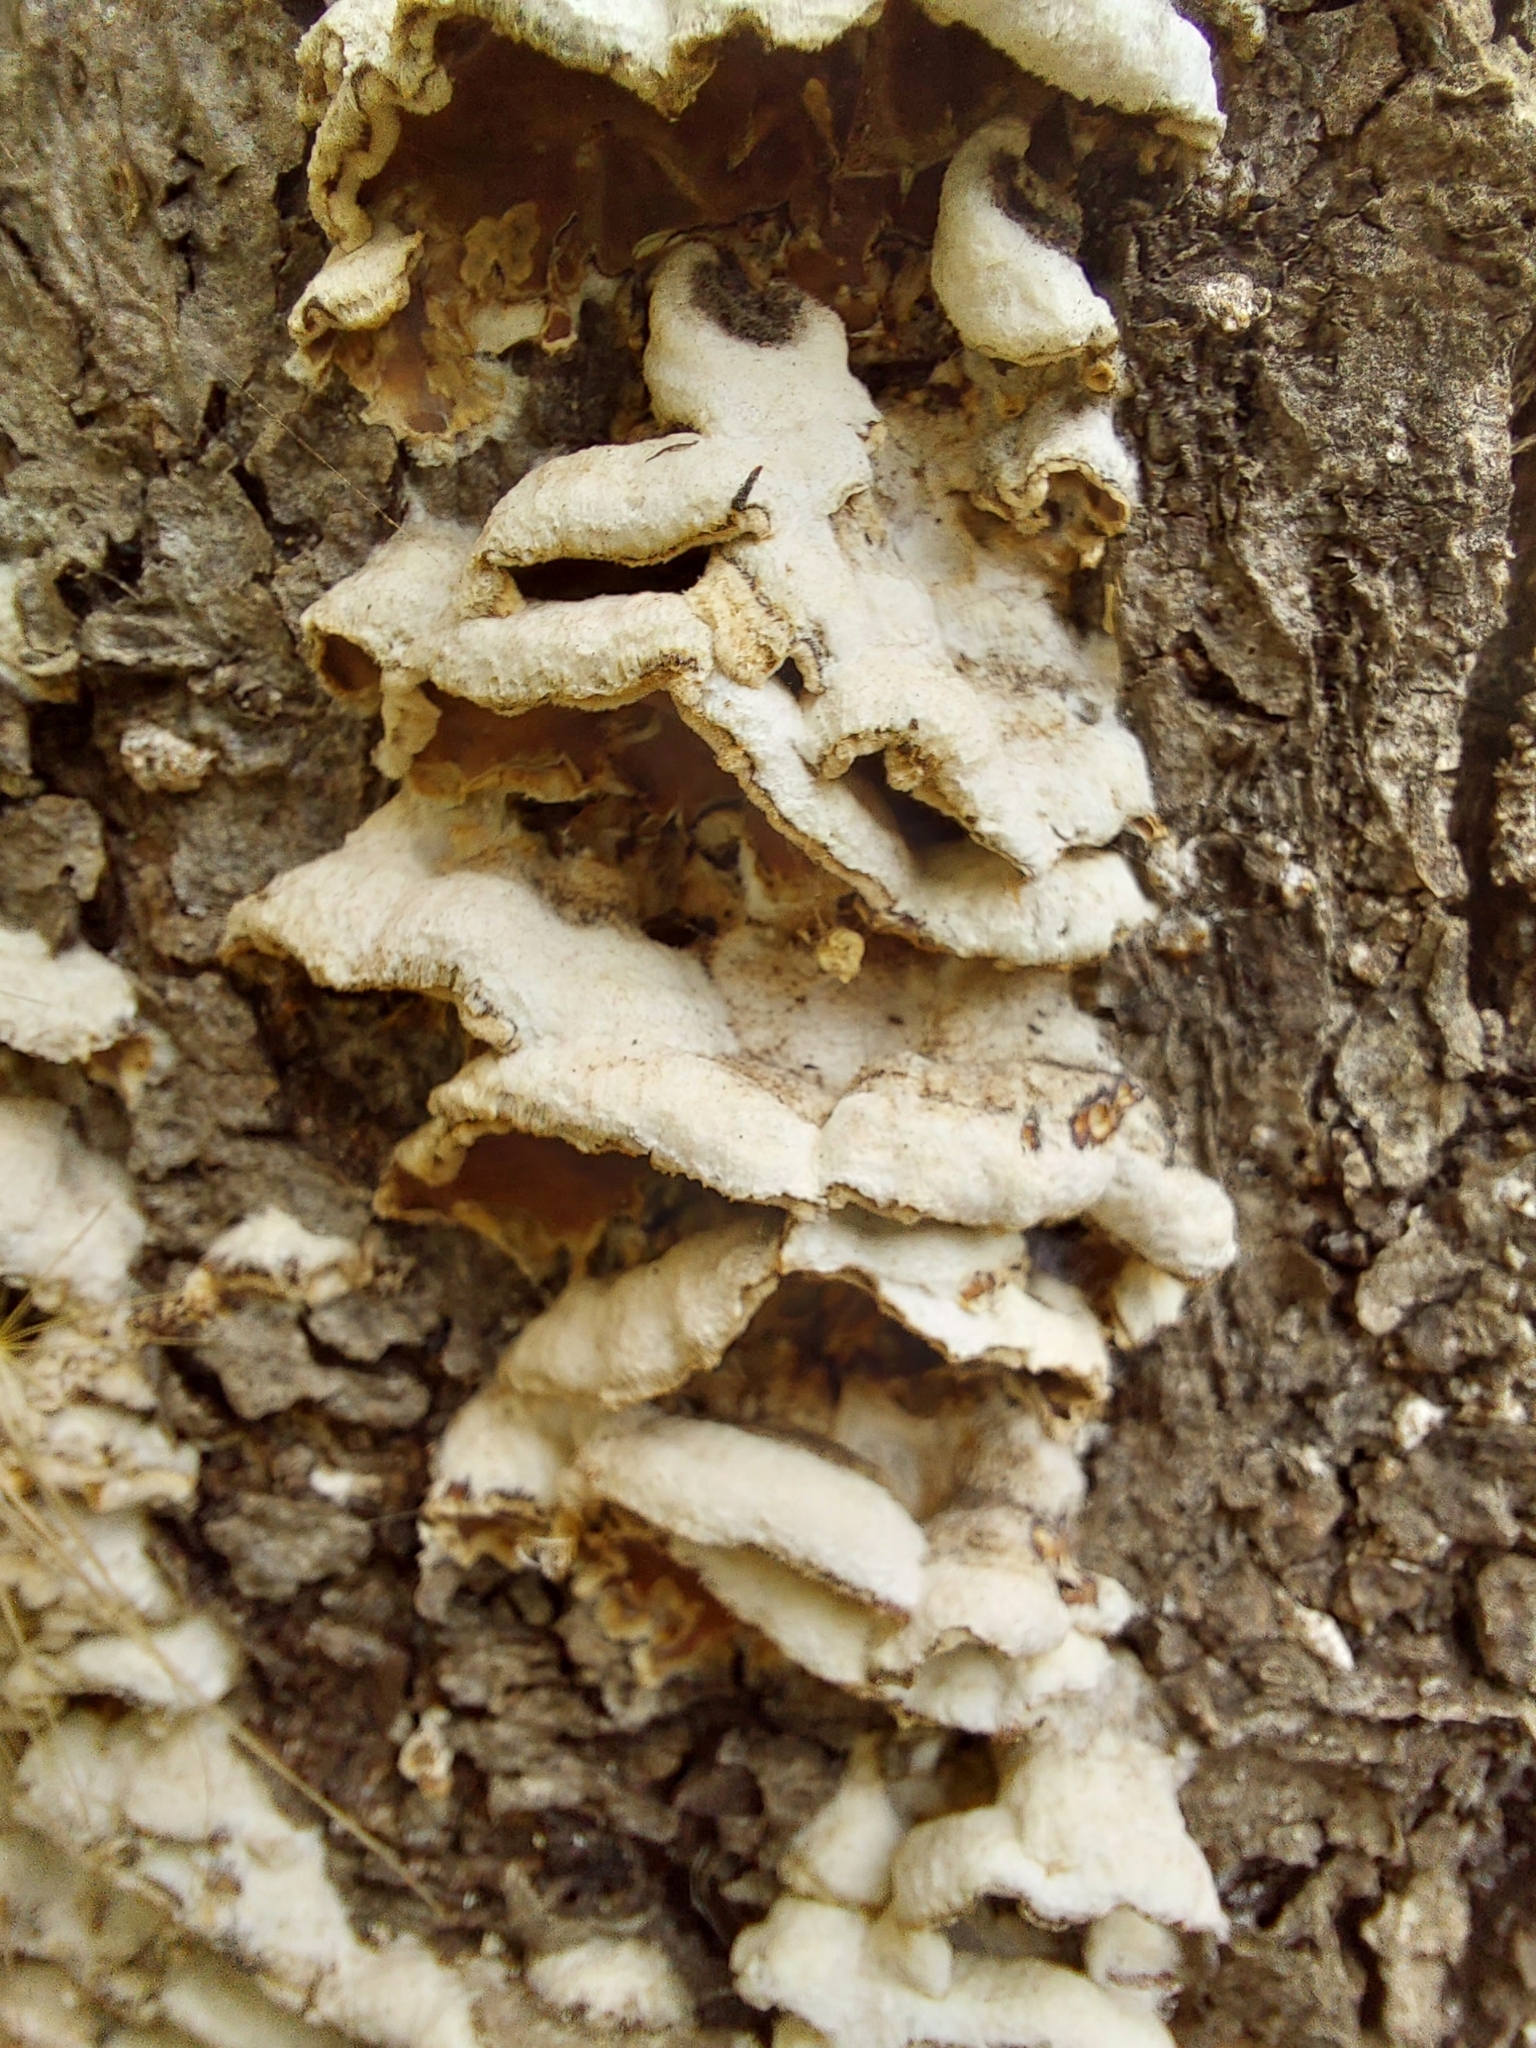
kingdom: Fungi
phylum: Basidiomycota
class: Agaricomycetes
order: Russulales
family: Stereaceae
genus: Stereum
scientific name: Stereum hirsutum
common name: Hairy curtain crust
